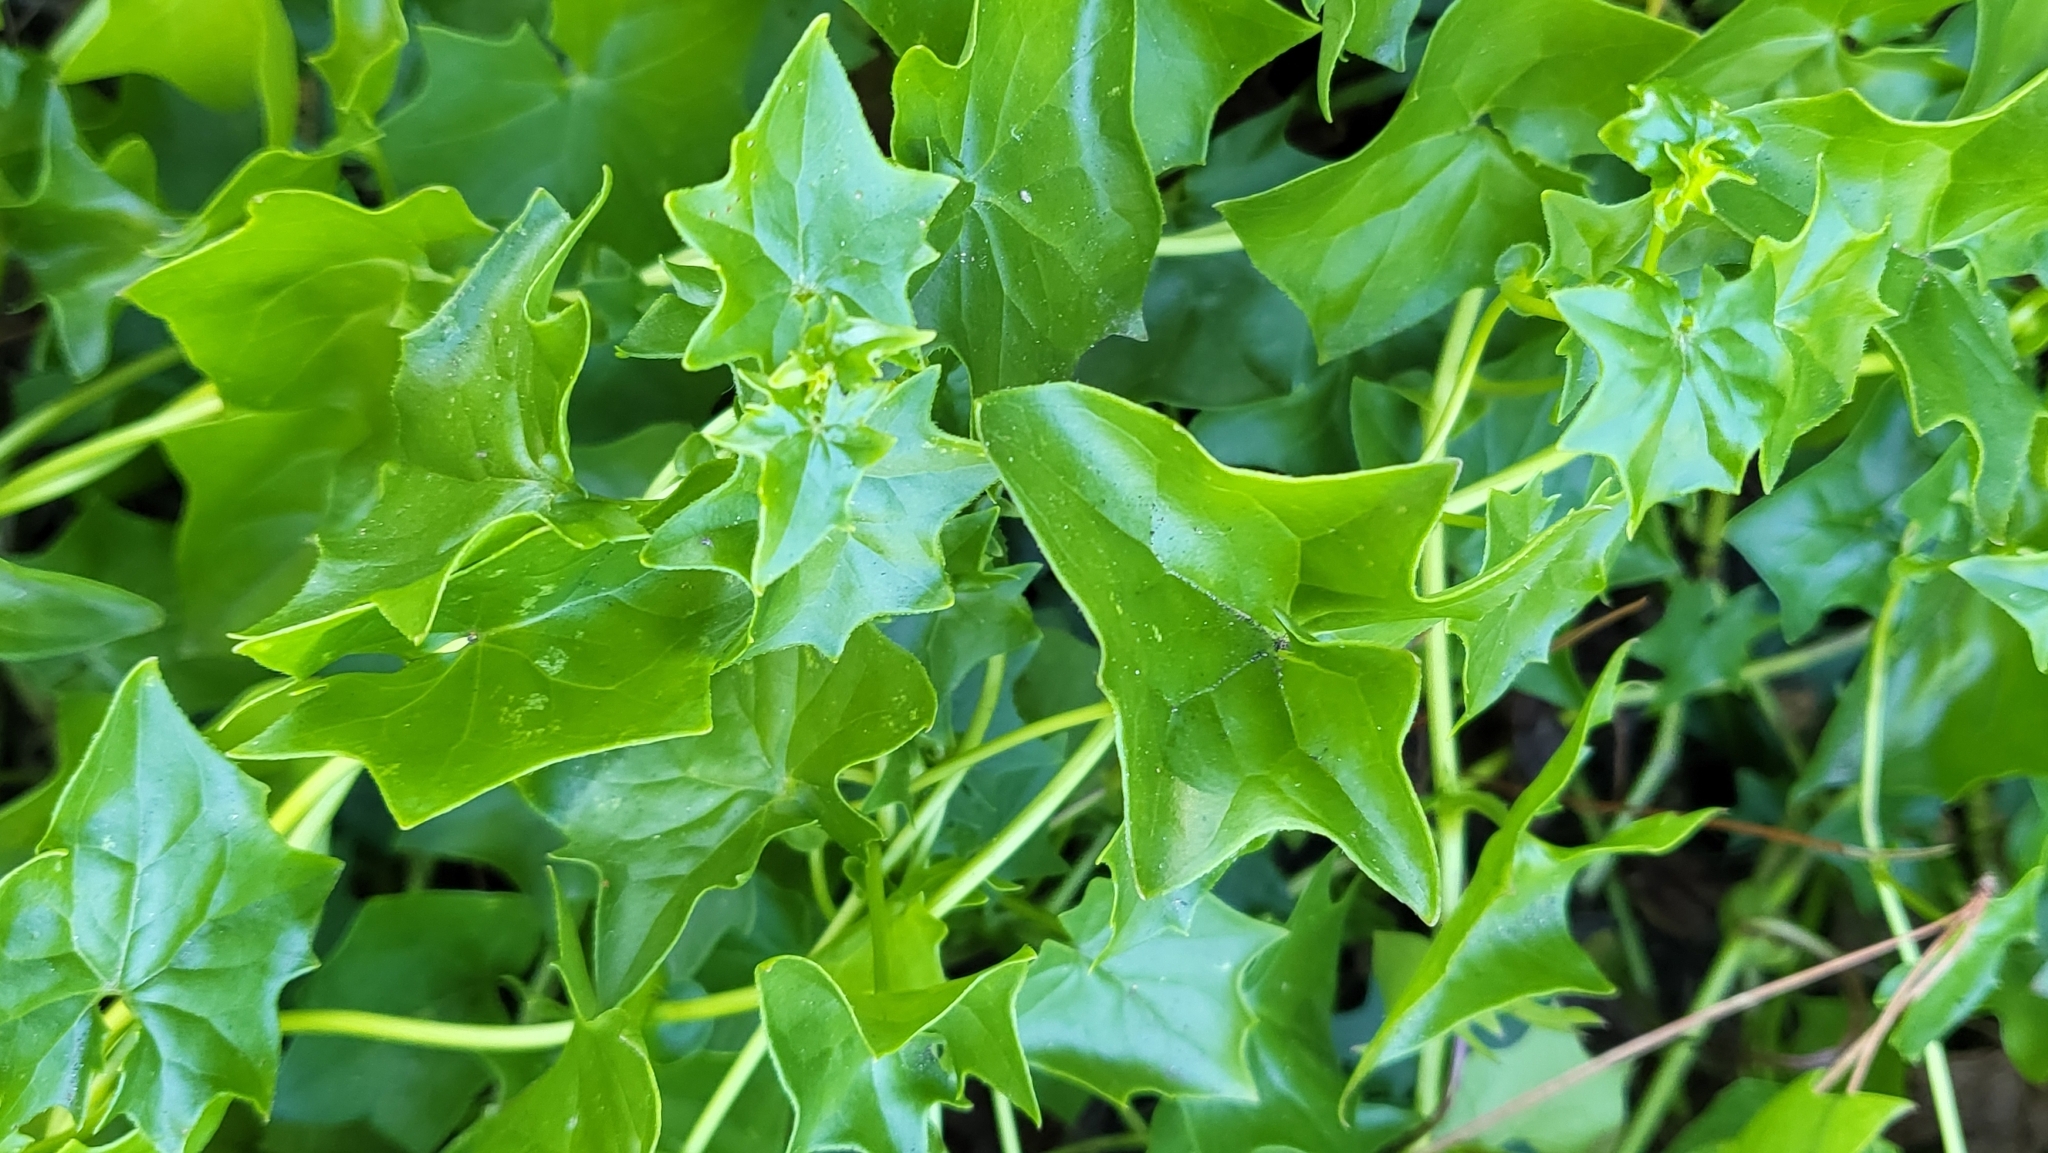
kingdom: Plantae
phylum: Tracheophyta
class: Magnoliopsida
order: Asterales
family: Asteraceae
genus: Delairea
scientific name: Delairea odorata
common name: Cape-ivy
